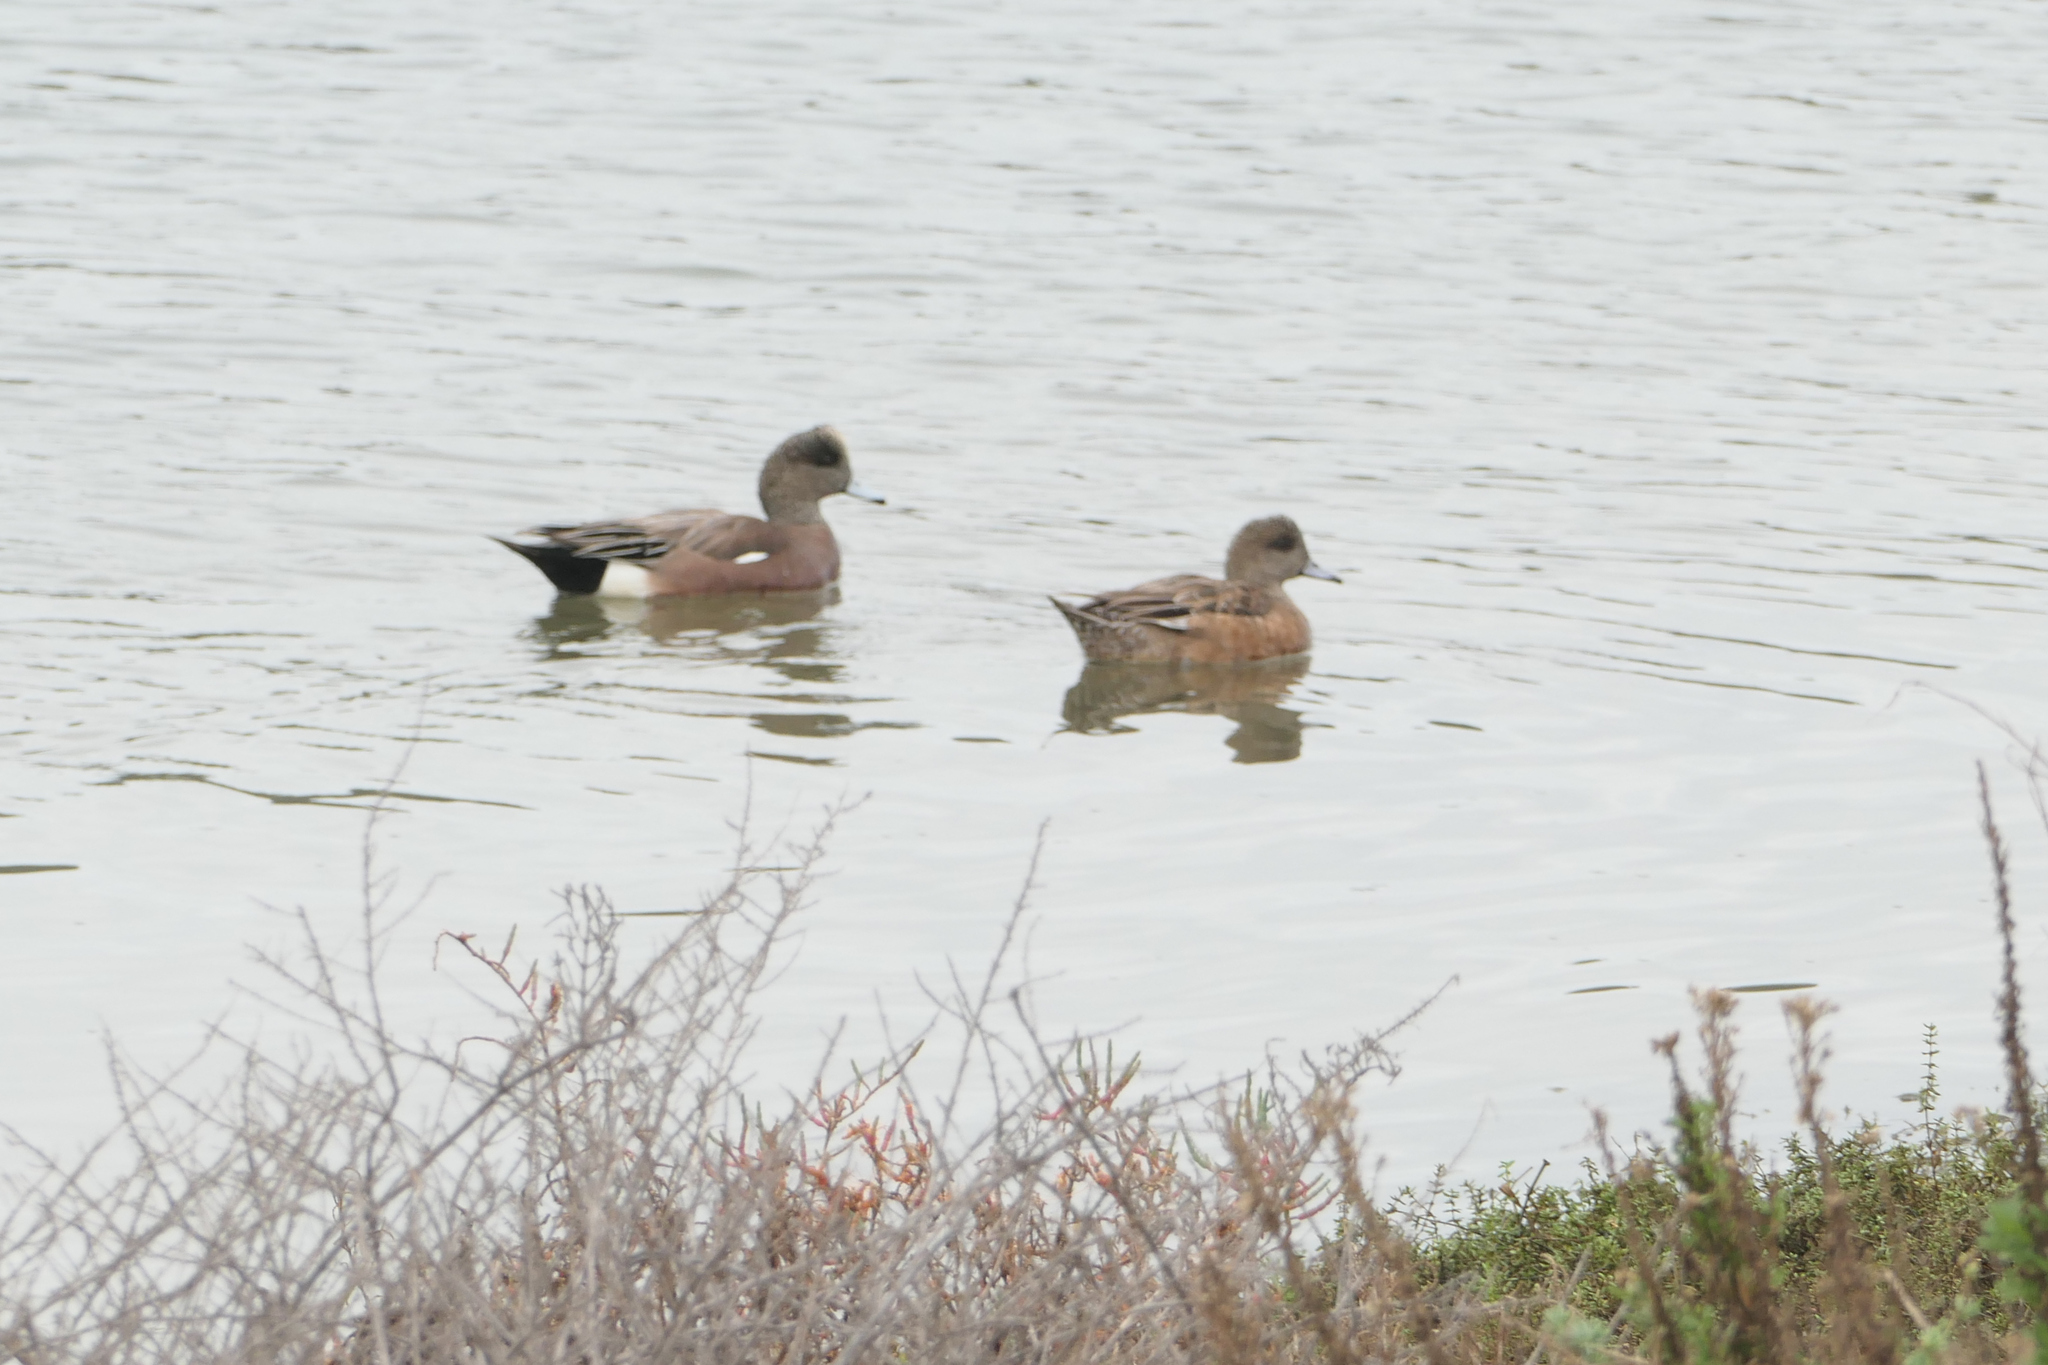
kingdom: Animalia
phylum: Chordata
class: Aves
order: Anseriformes
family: Anatidae
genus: Mareca
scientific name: Mareca americana
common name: American wigeon
